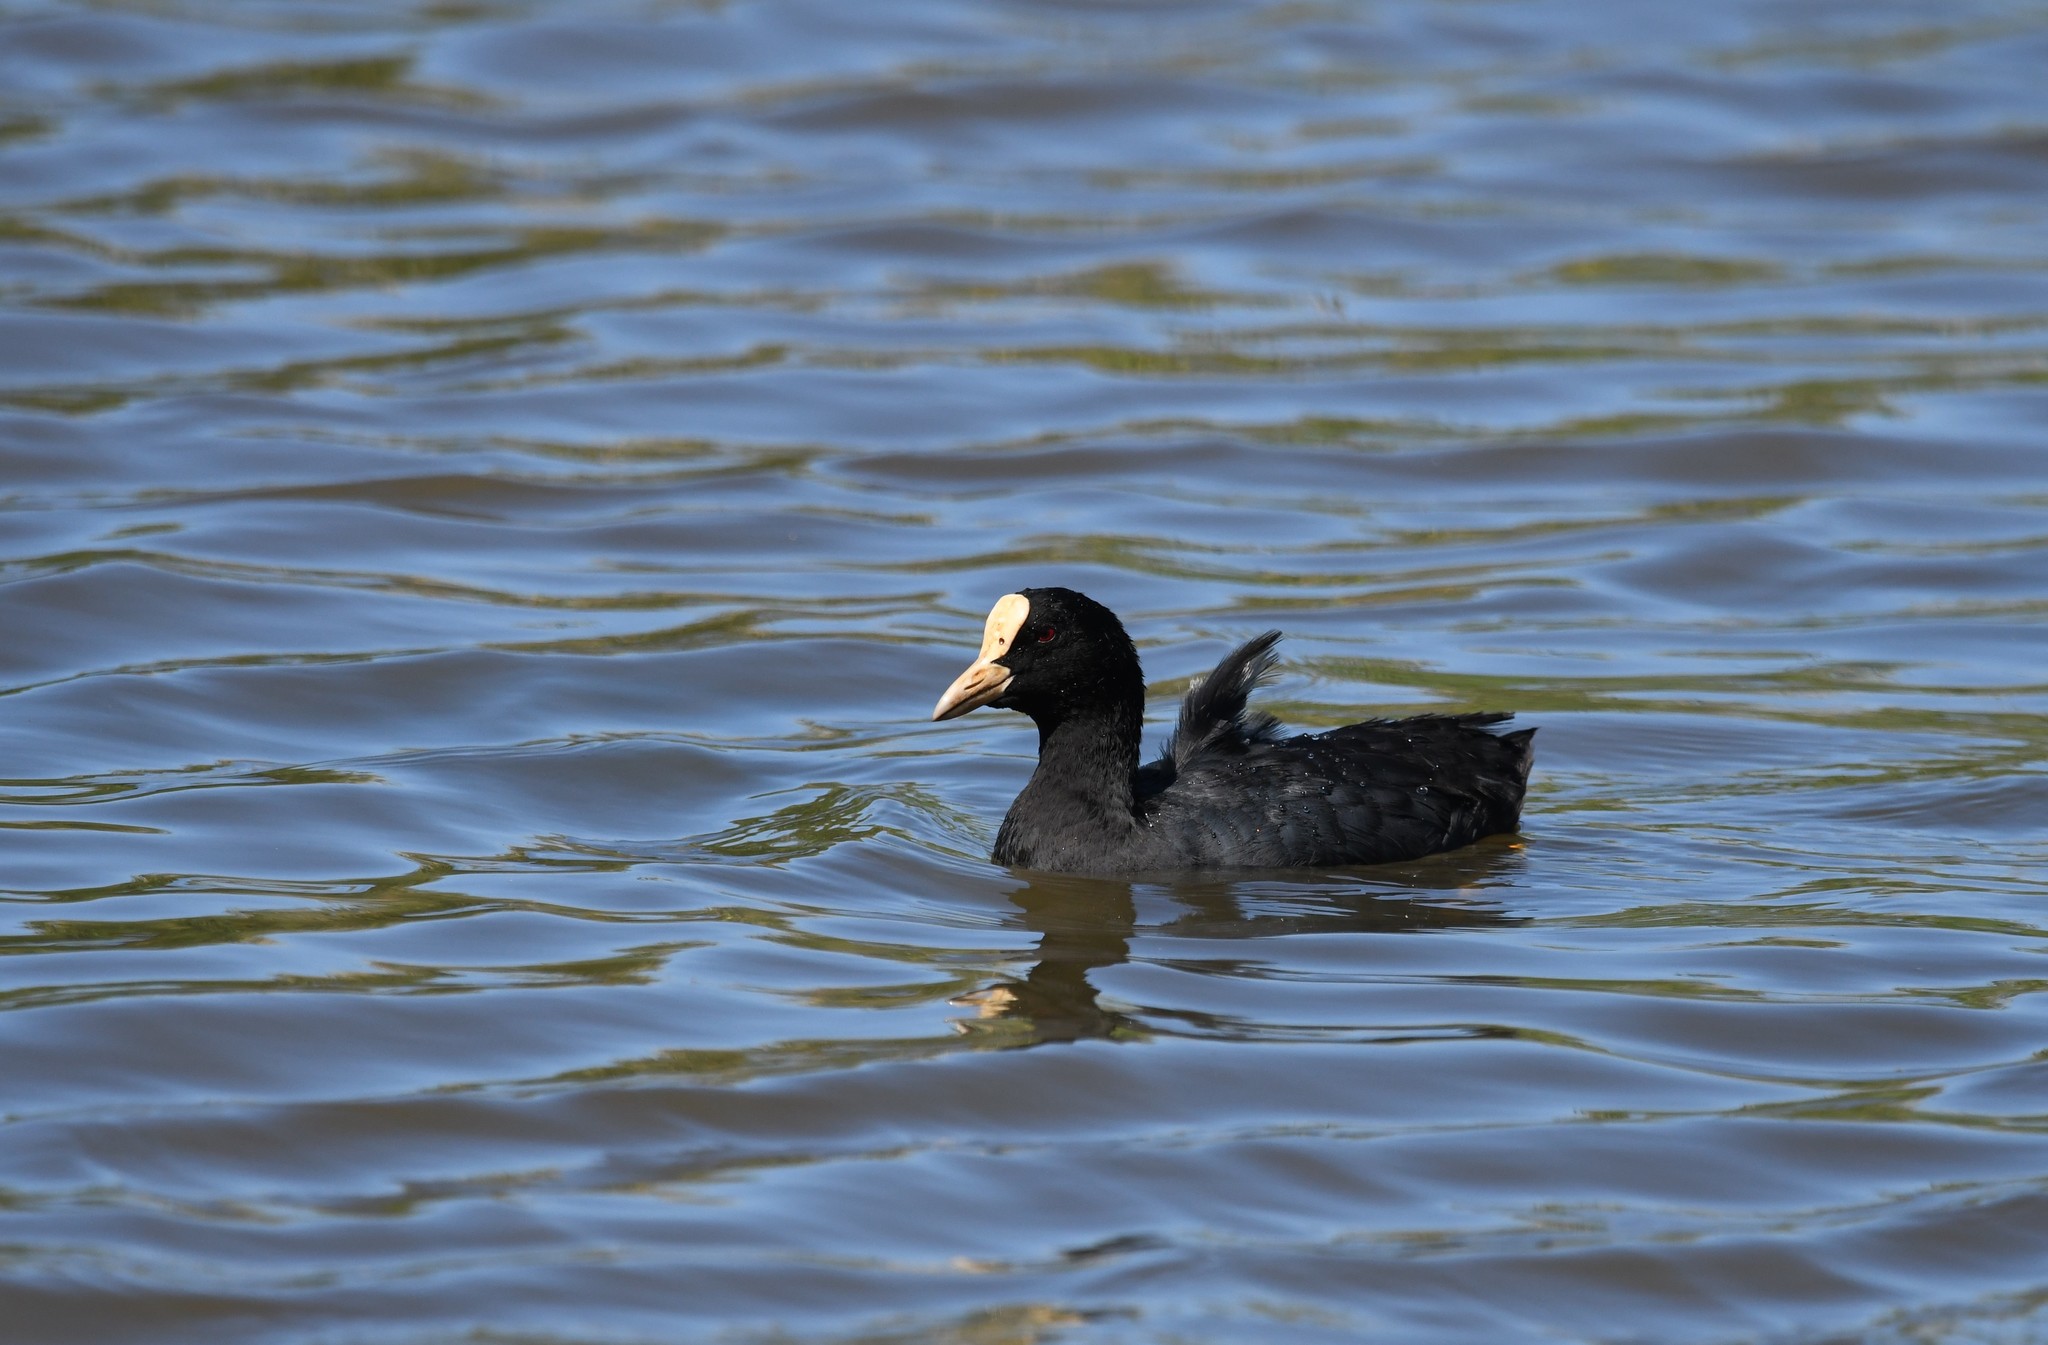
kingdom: Animalia
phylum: Chordata
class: Aves
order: Gruiformes
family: Rallidae
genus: Fulica
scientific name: Fulica atra
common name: Eurasian coot
